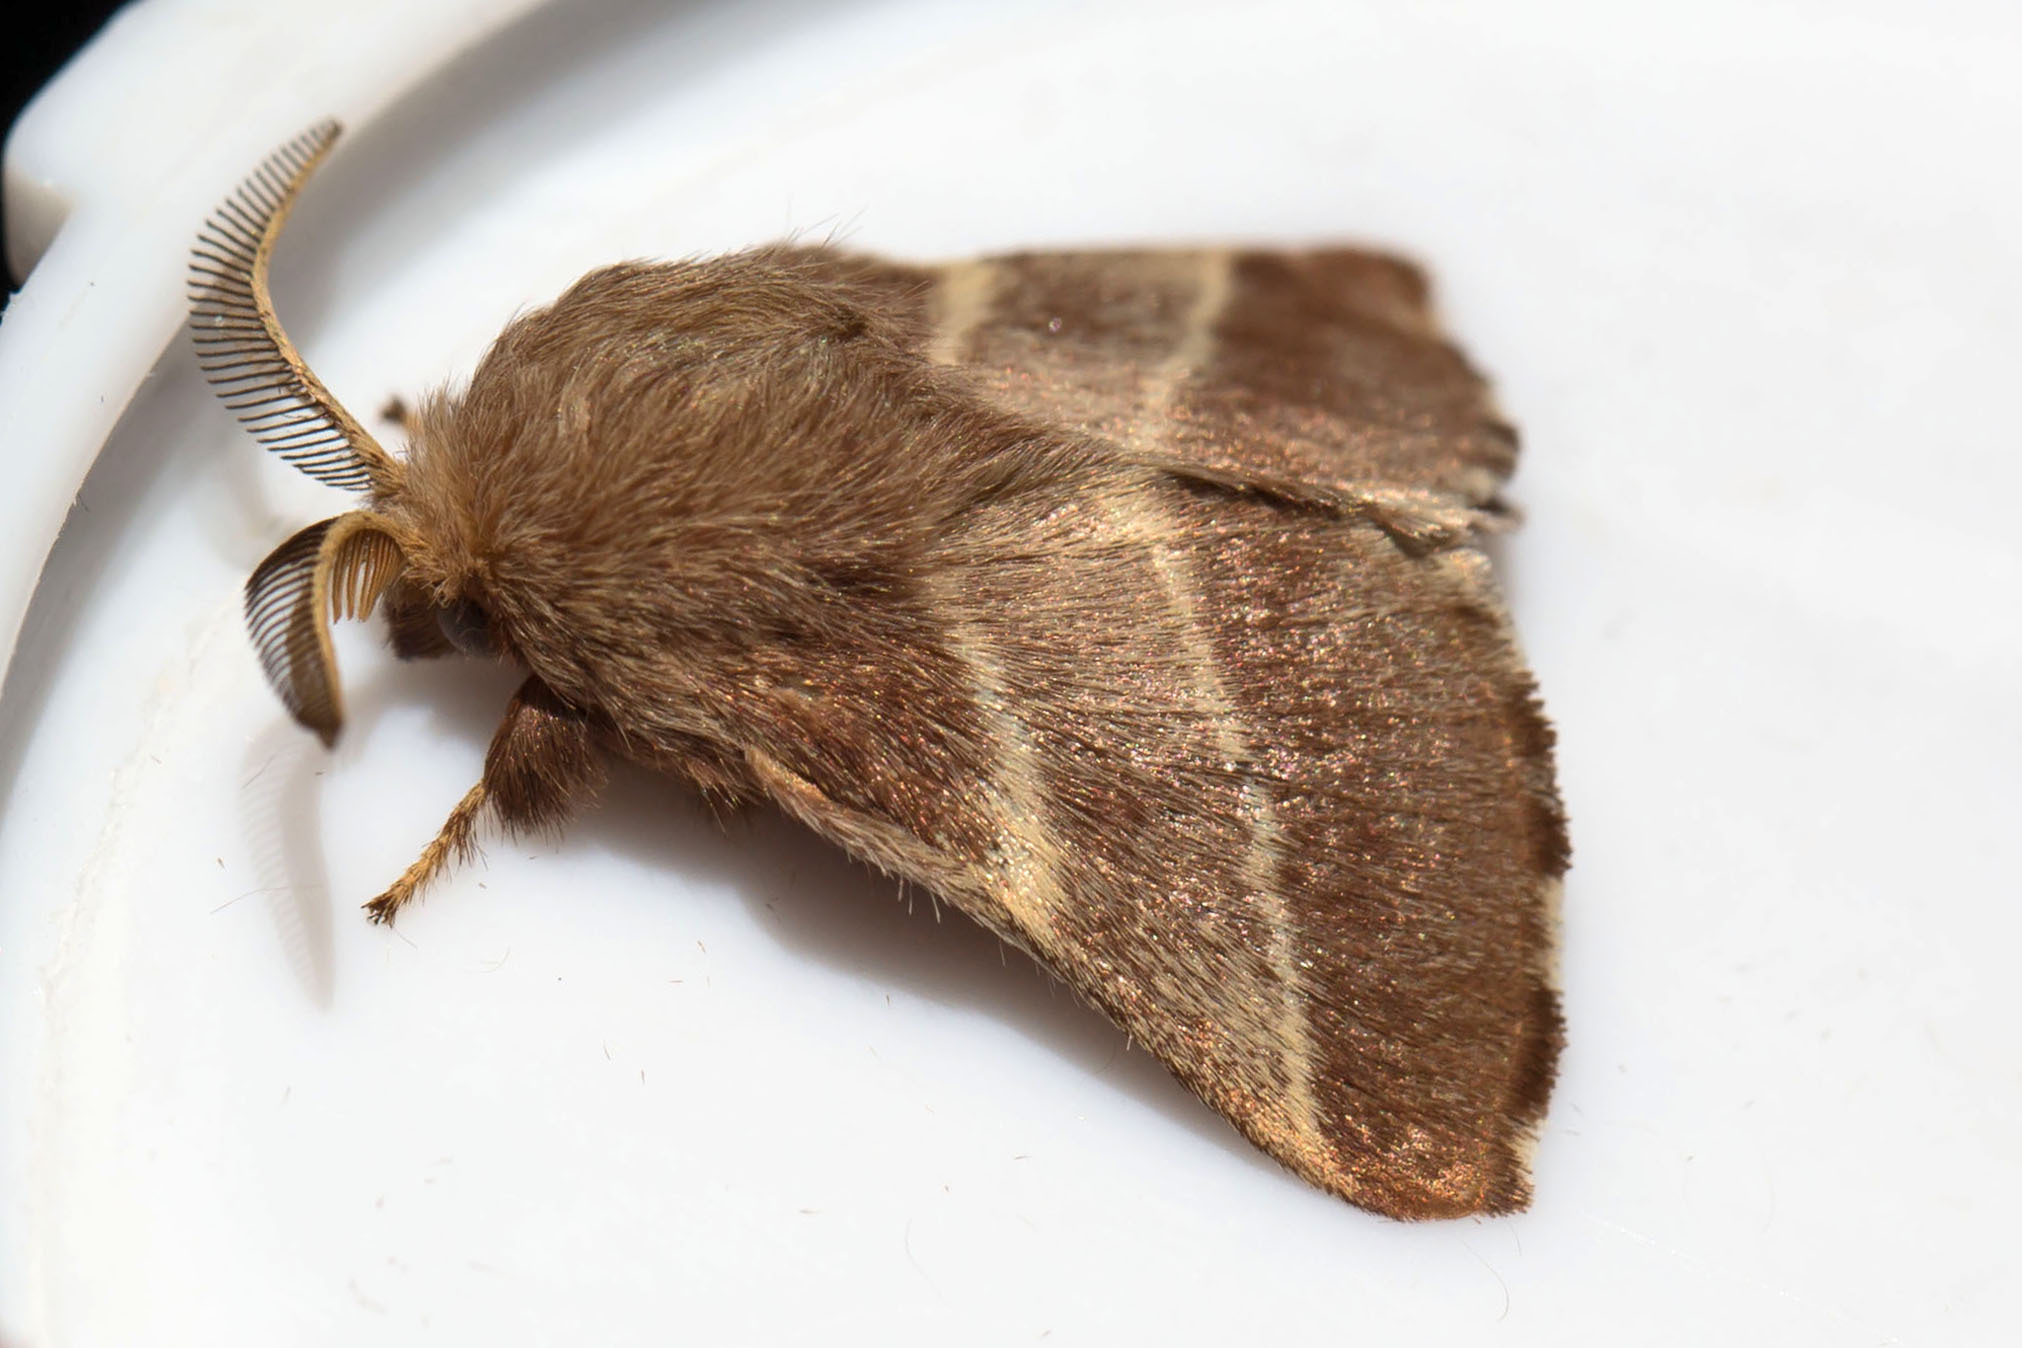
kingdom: Animalia
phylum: Arthropoda
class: Insecta
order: Lepidoptera
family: Lasiocampidae
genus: Malacosoma
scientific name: Malacosoma americana
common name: Eastern tent caterpillar moth
